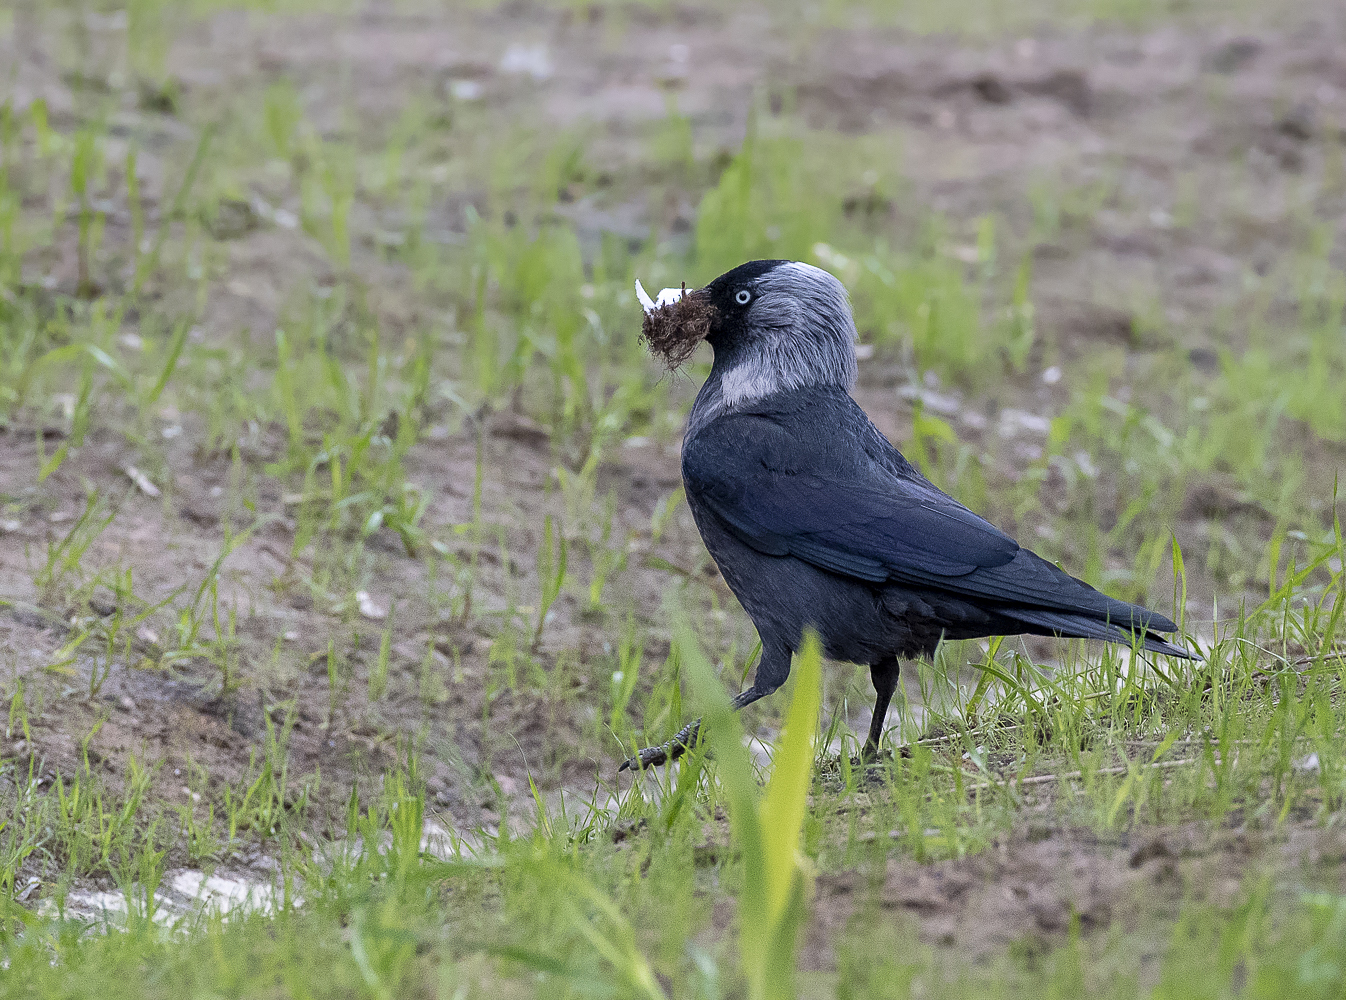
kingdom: Animalia
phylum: Chordata
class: Aves
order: Passeriformes
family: Corvidae
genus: Coloeus
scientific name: Coloeus monedula
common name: Western jackdaw
